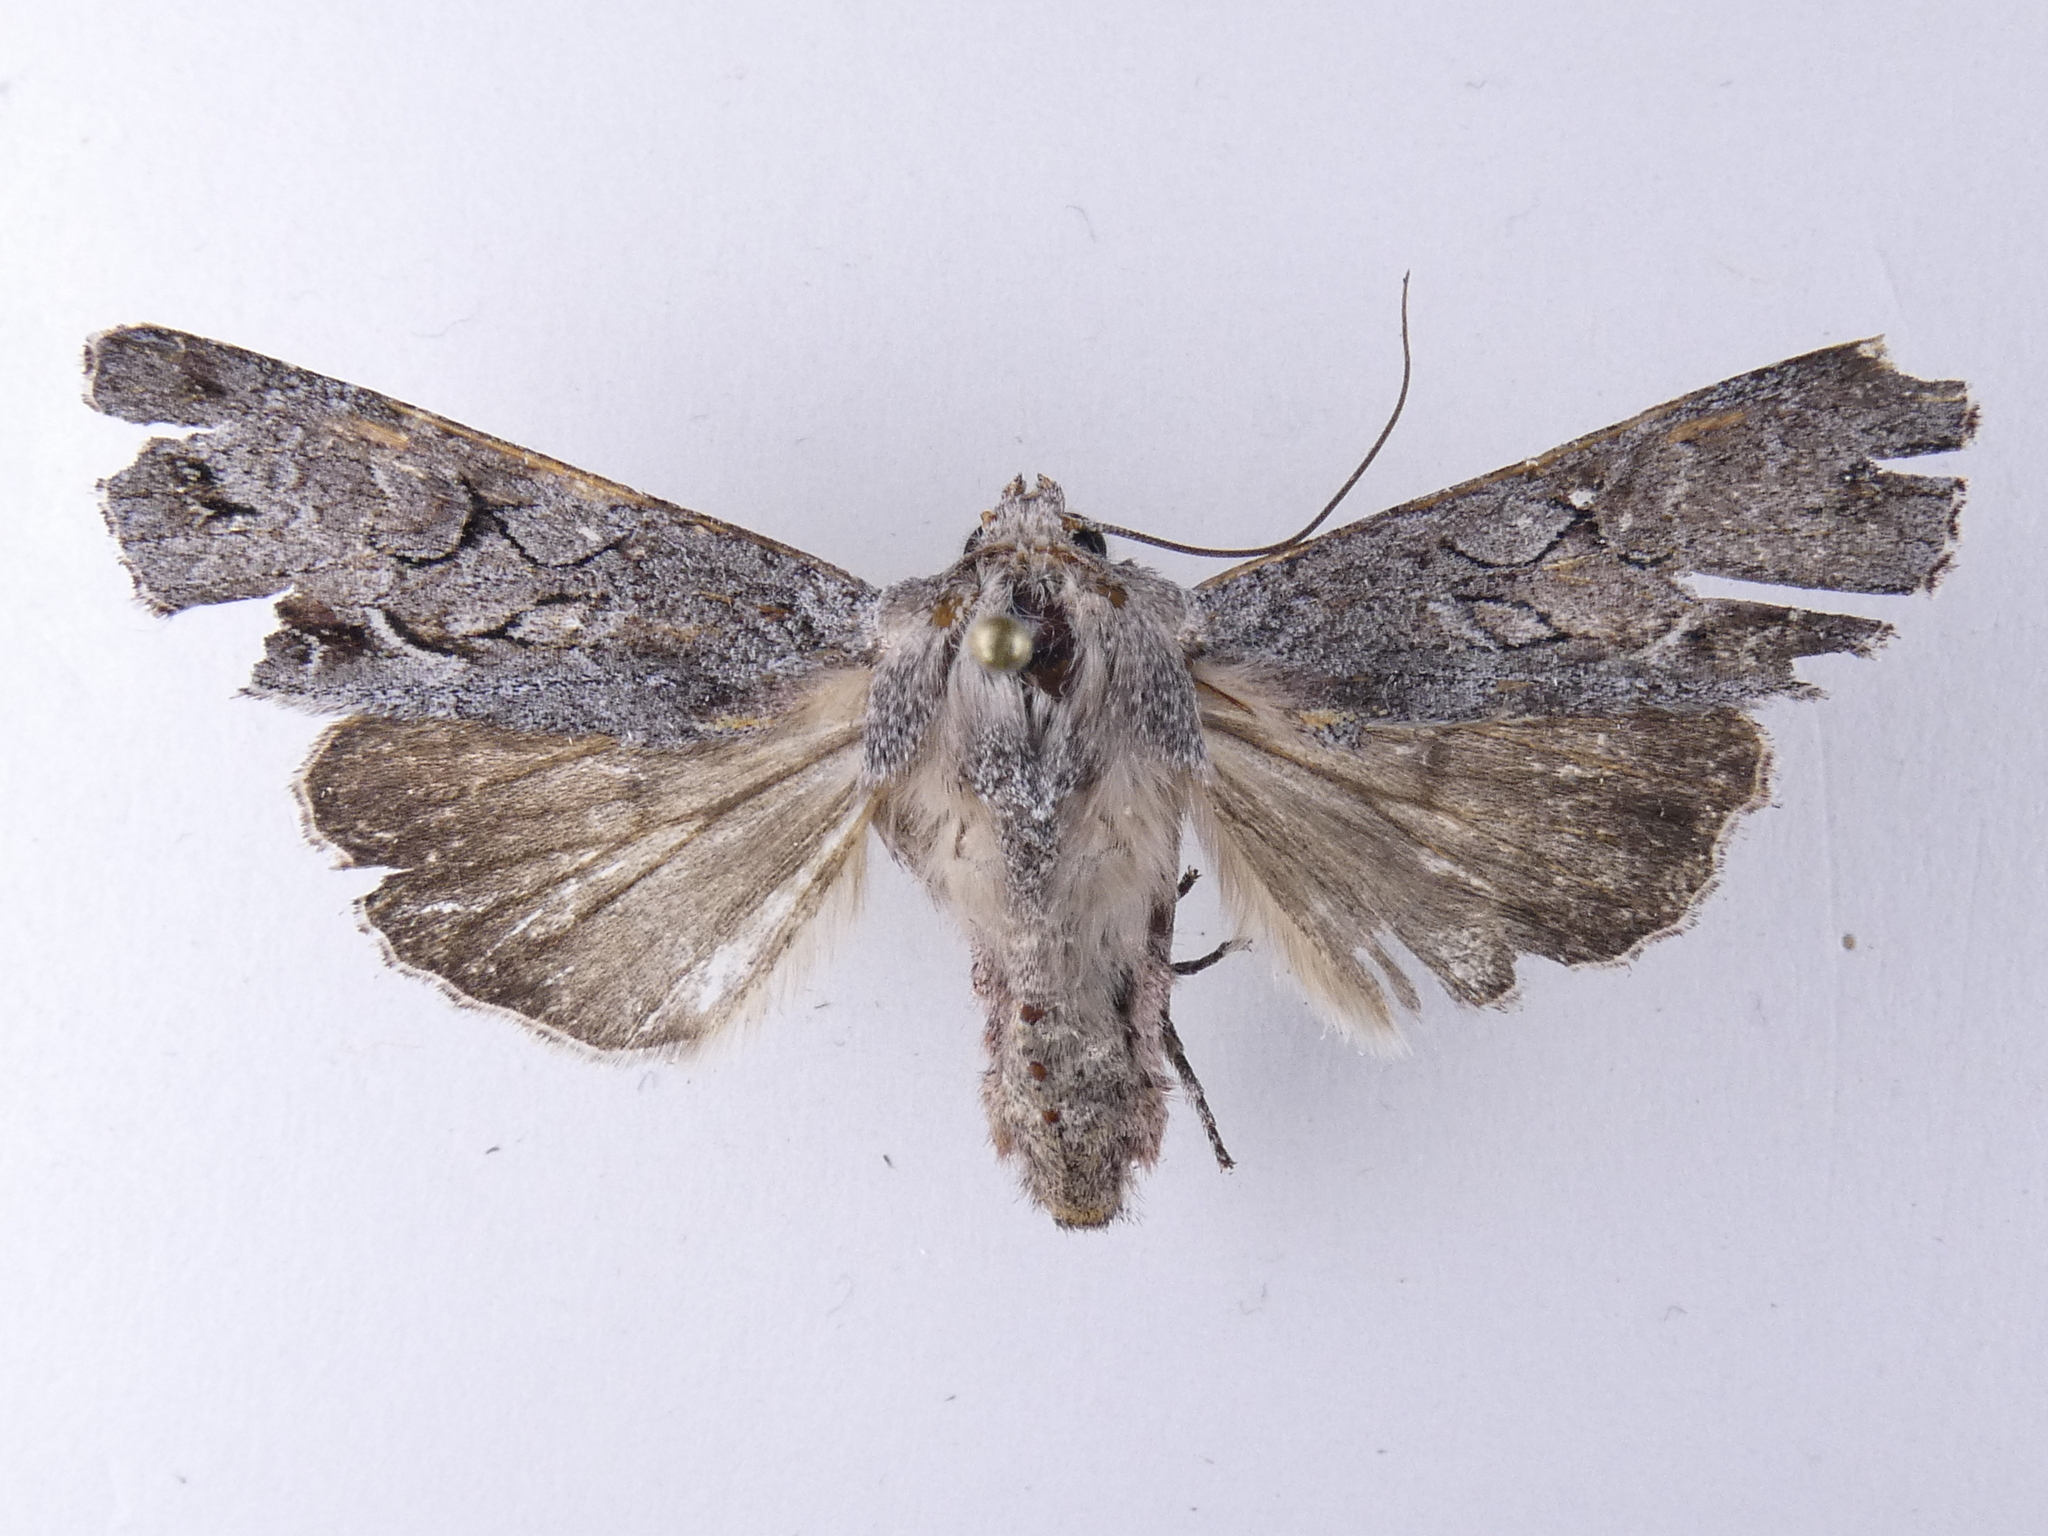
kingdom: Animalia
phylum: Arthropoda
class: Insecta
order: Lepidoptera
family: Noctuidae
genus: Ichneutica
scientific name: Ichneutica
